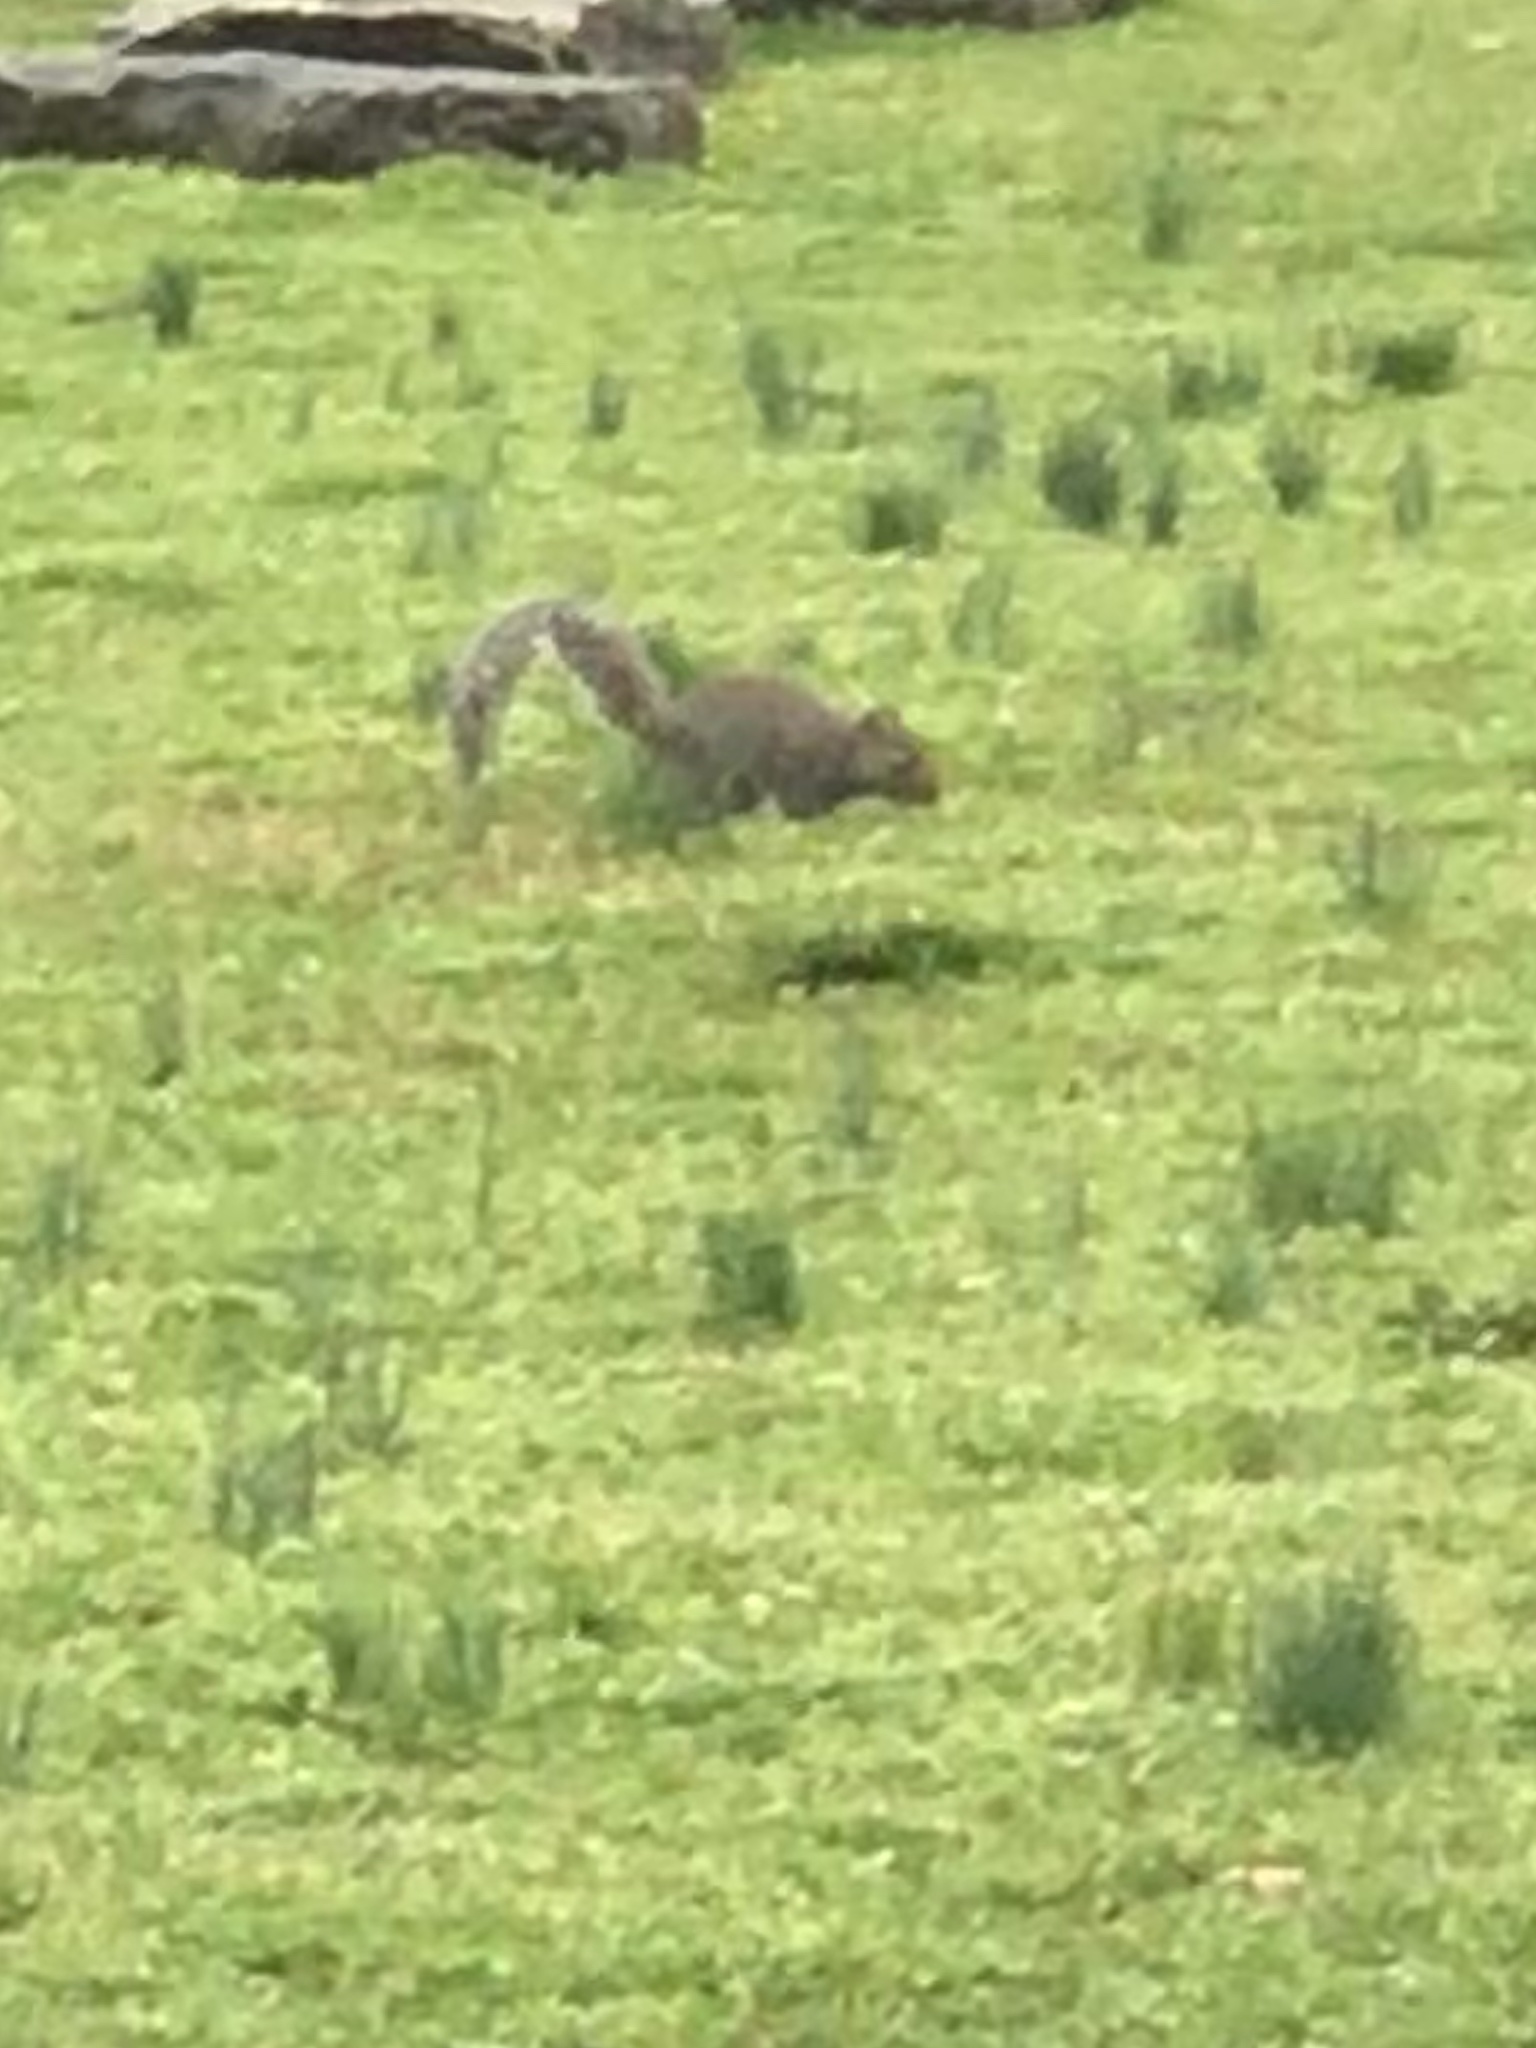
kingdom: Animalia
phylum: Chordata
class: Mammalia
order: Rodentia
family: Sciuridae
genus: Sciurus
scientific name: Sciurus carolinensis
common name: Eastern gray squirrel
